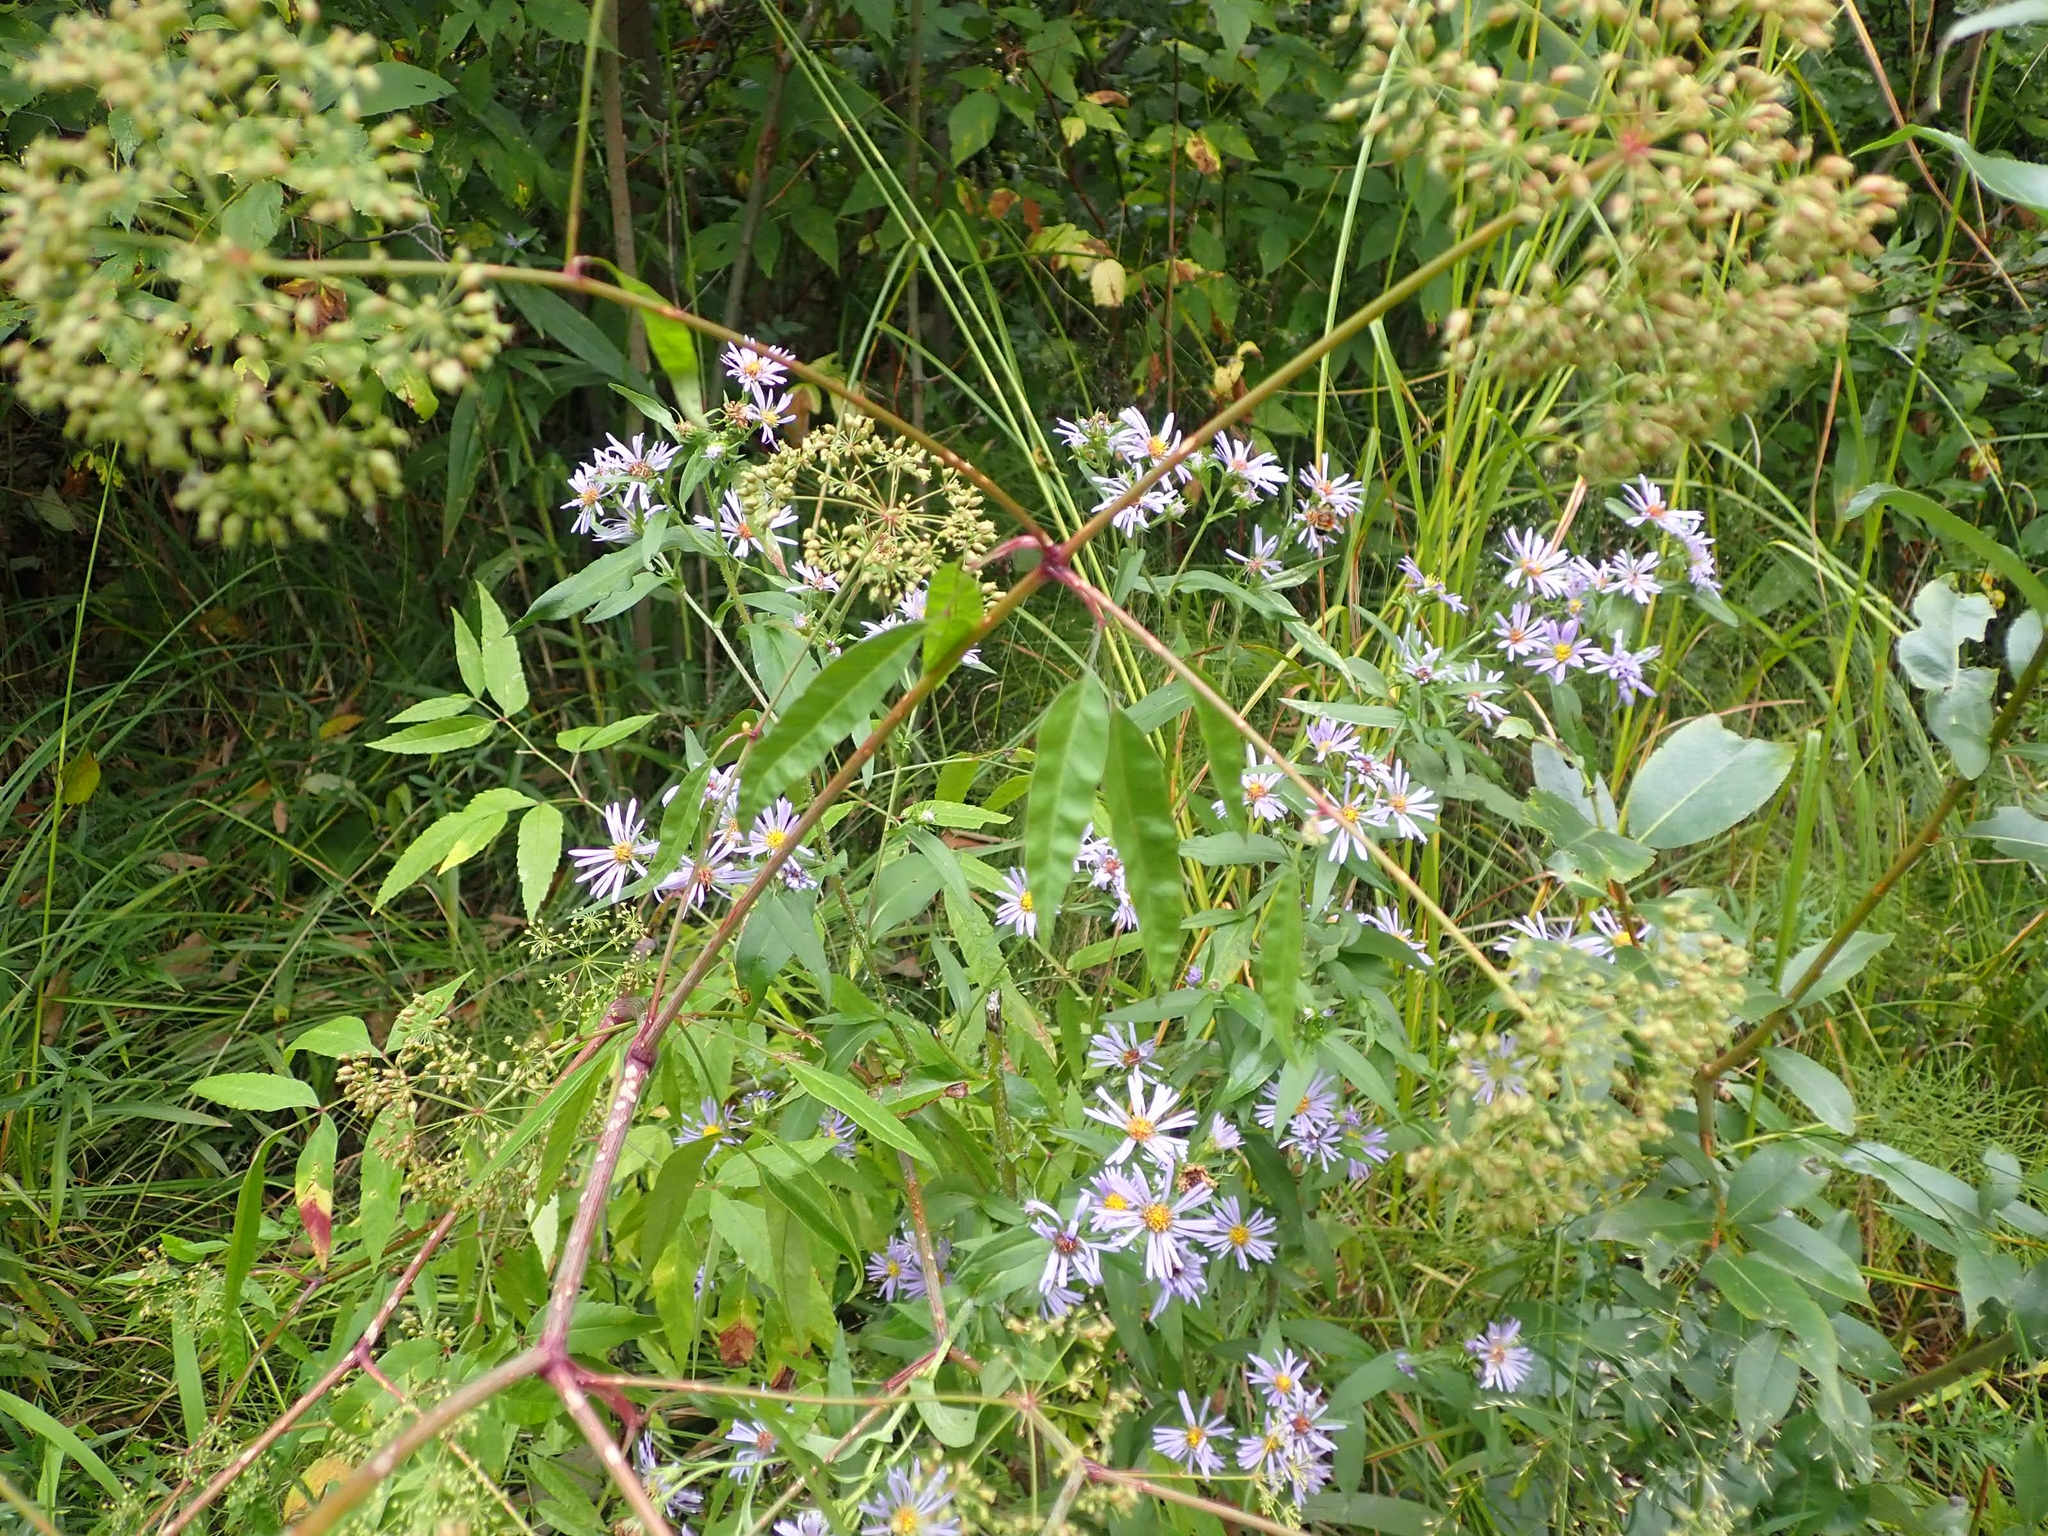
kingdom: Plantae
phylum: Tracheophyta
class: Magnoliopsida
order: Apiales
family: Apiaceae
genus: Cicuta
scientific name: Cicuta maculata
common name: Spotted cowbane
